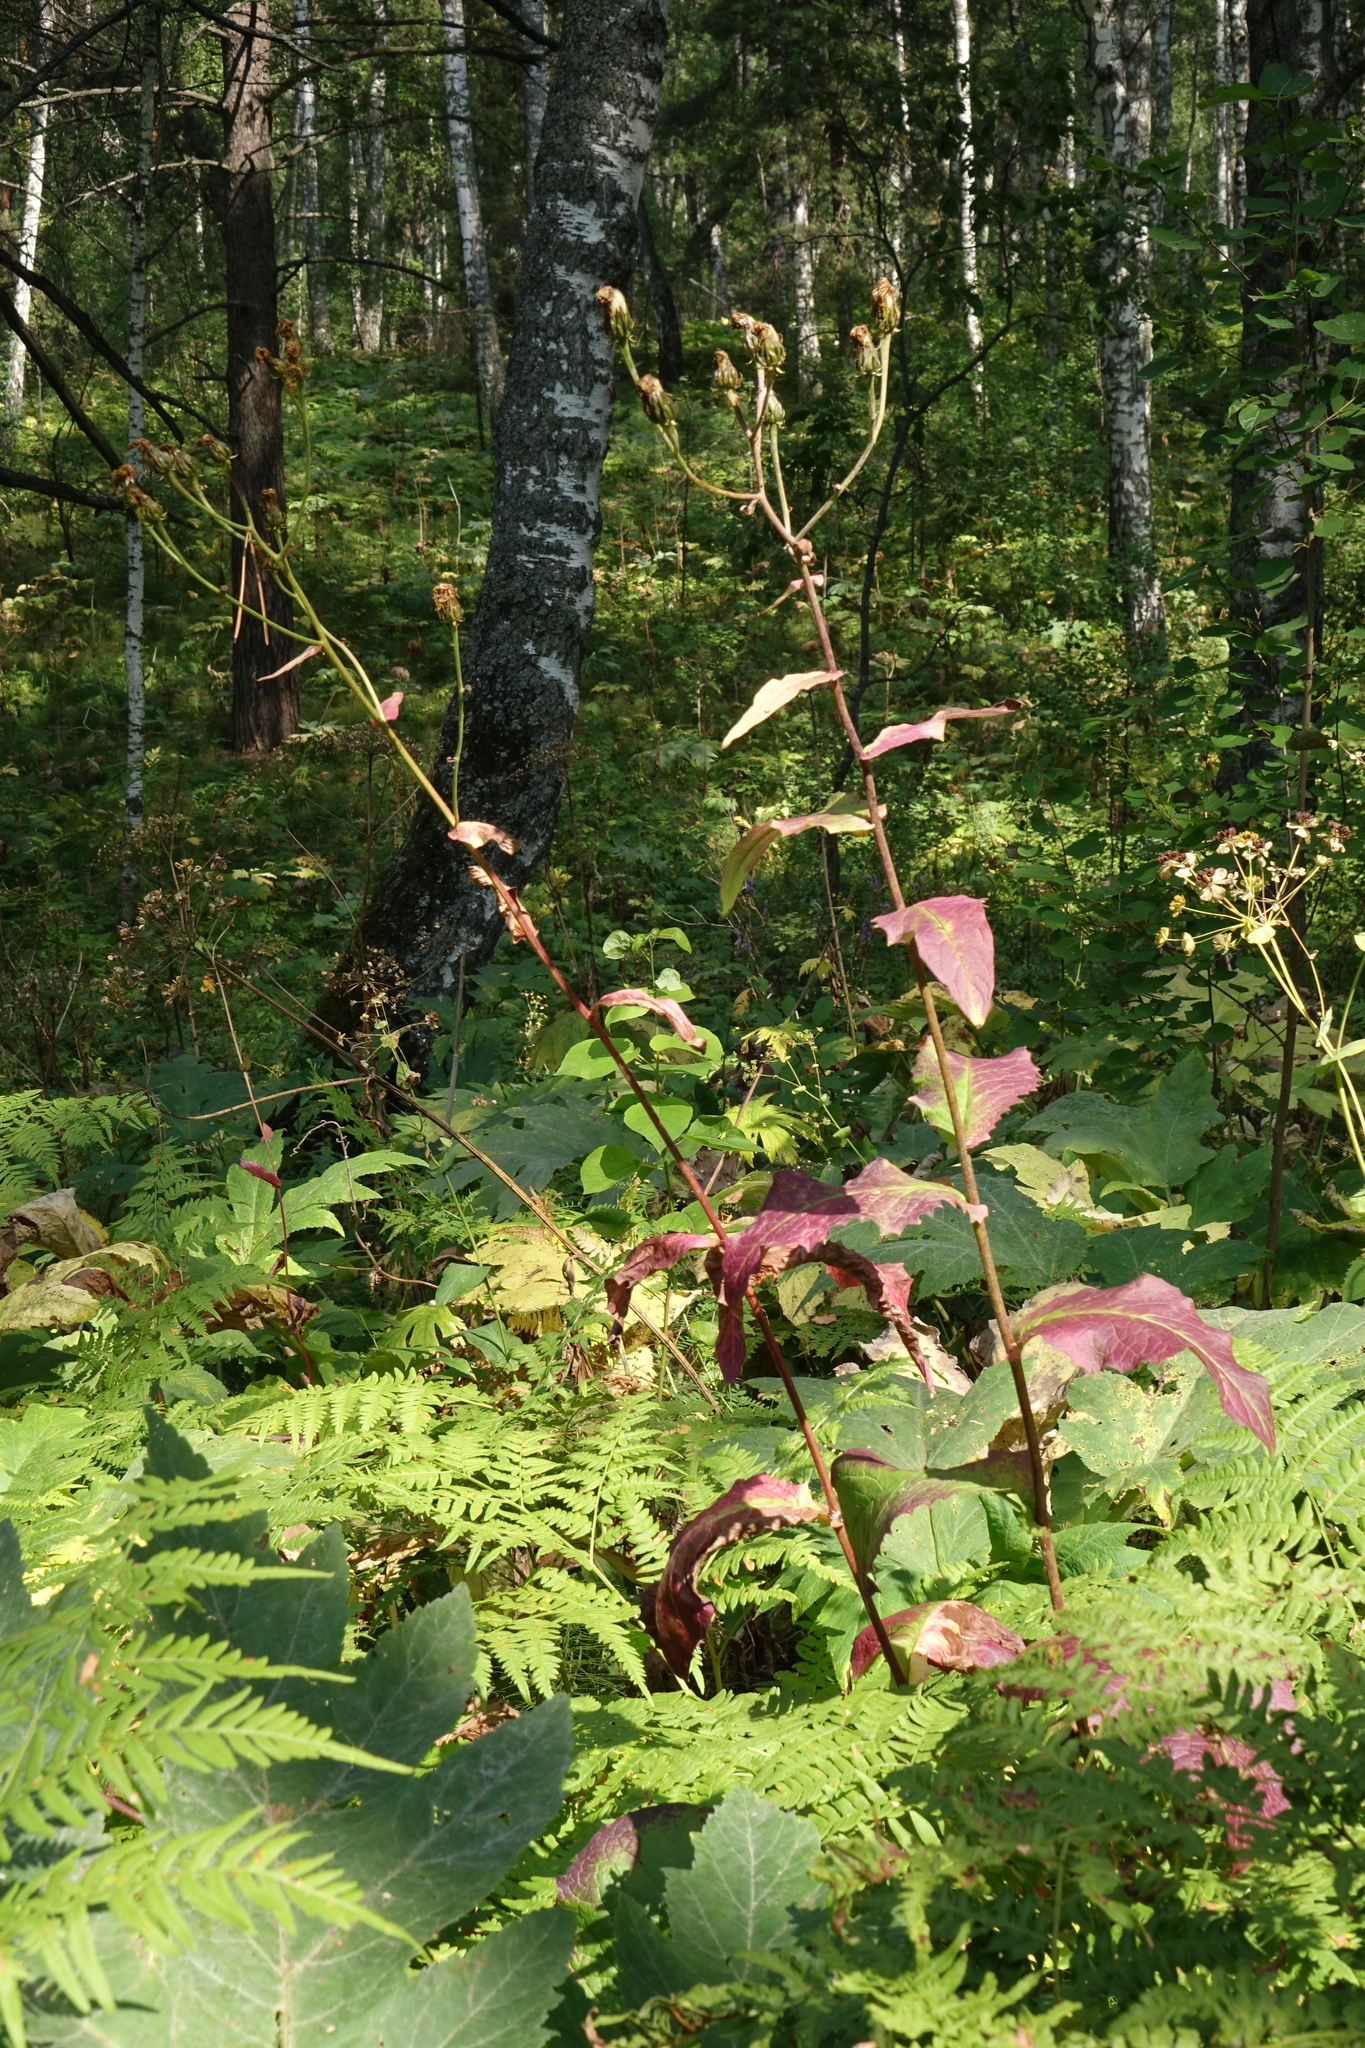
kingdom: Plantae
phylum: Tracheophyta
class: Magnoliopsida
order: Asterales
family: Asteraceae
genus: Crepis
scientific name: Crepis sibirica
